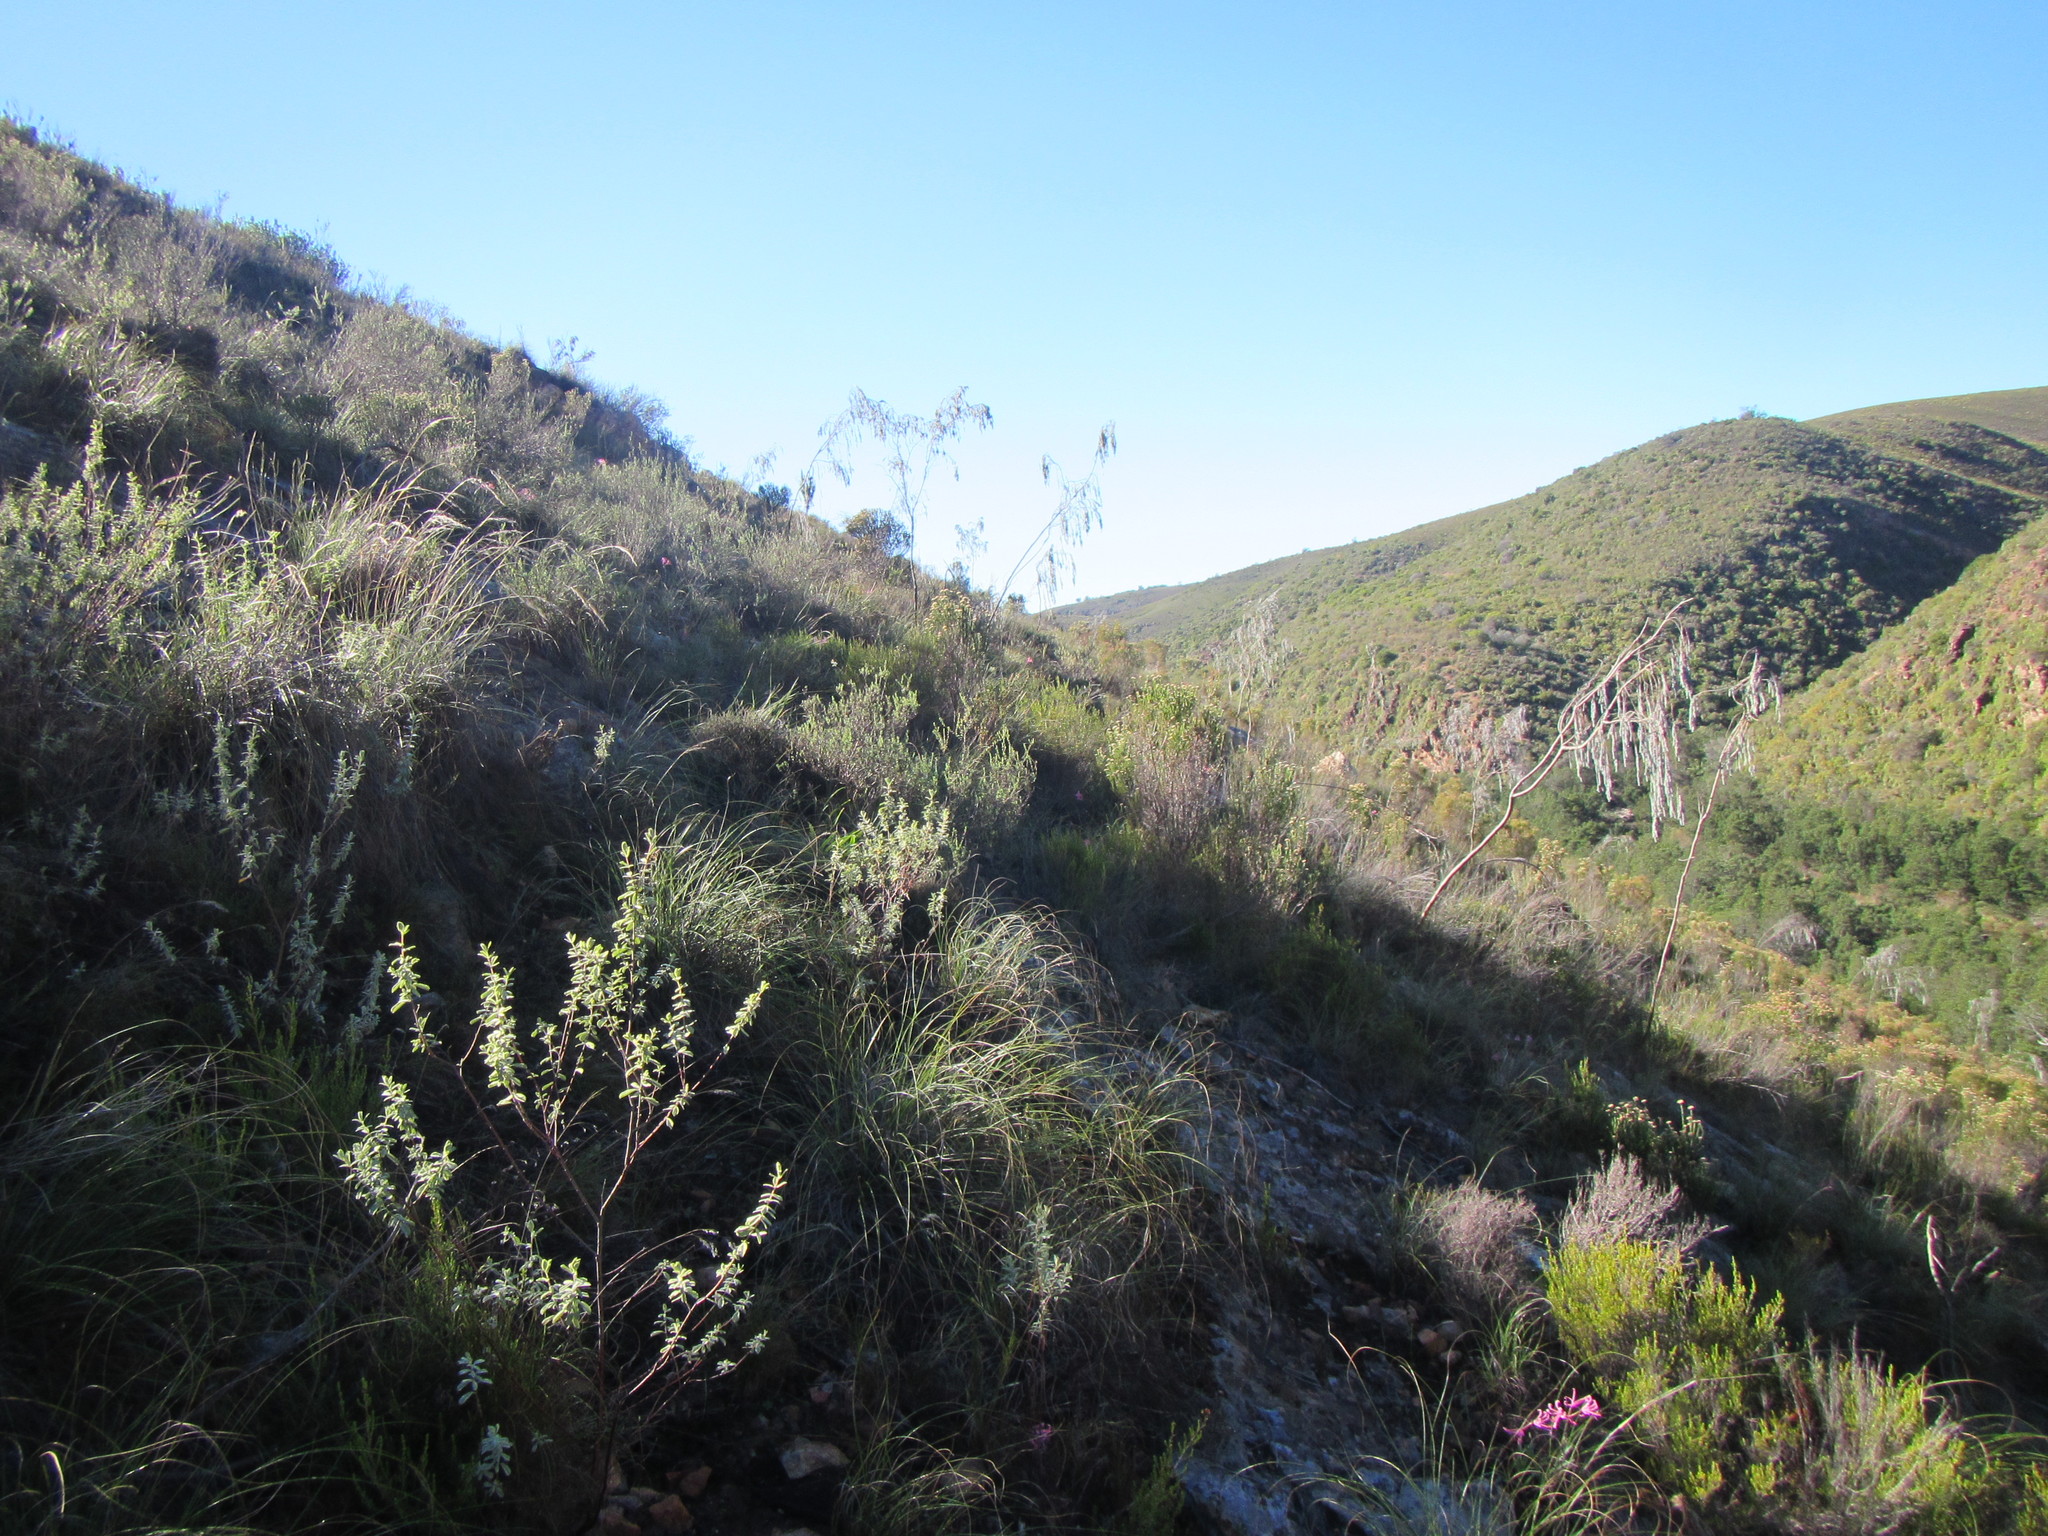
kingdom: Plantae
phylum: Tracheophyta
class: Magnoliopsida
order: Fabales
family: Fabaceae
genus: Aspalathus
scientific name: Aspalathus usnoides
